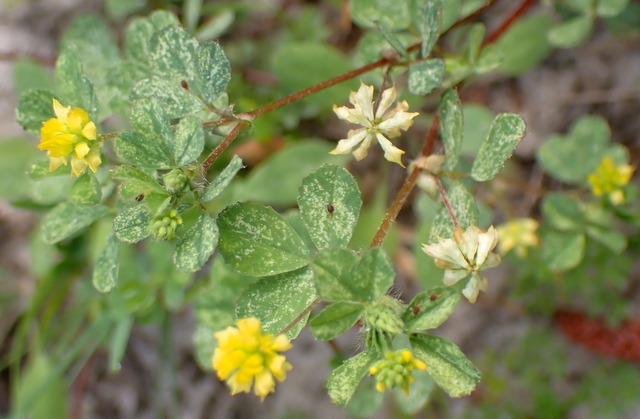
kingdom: Plantae
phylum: Tracheophyta
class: Magnoliopsida
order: Fabales
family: Fabaceae
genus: Trifolium
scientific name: Trifolium dubium
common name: Suckling clover
